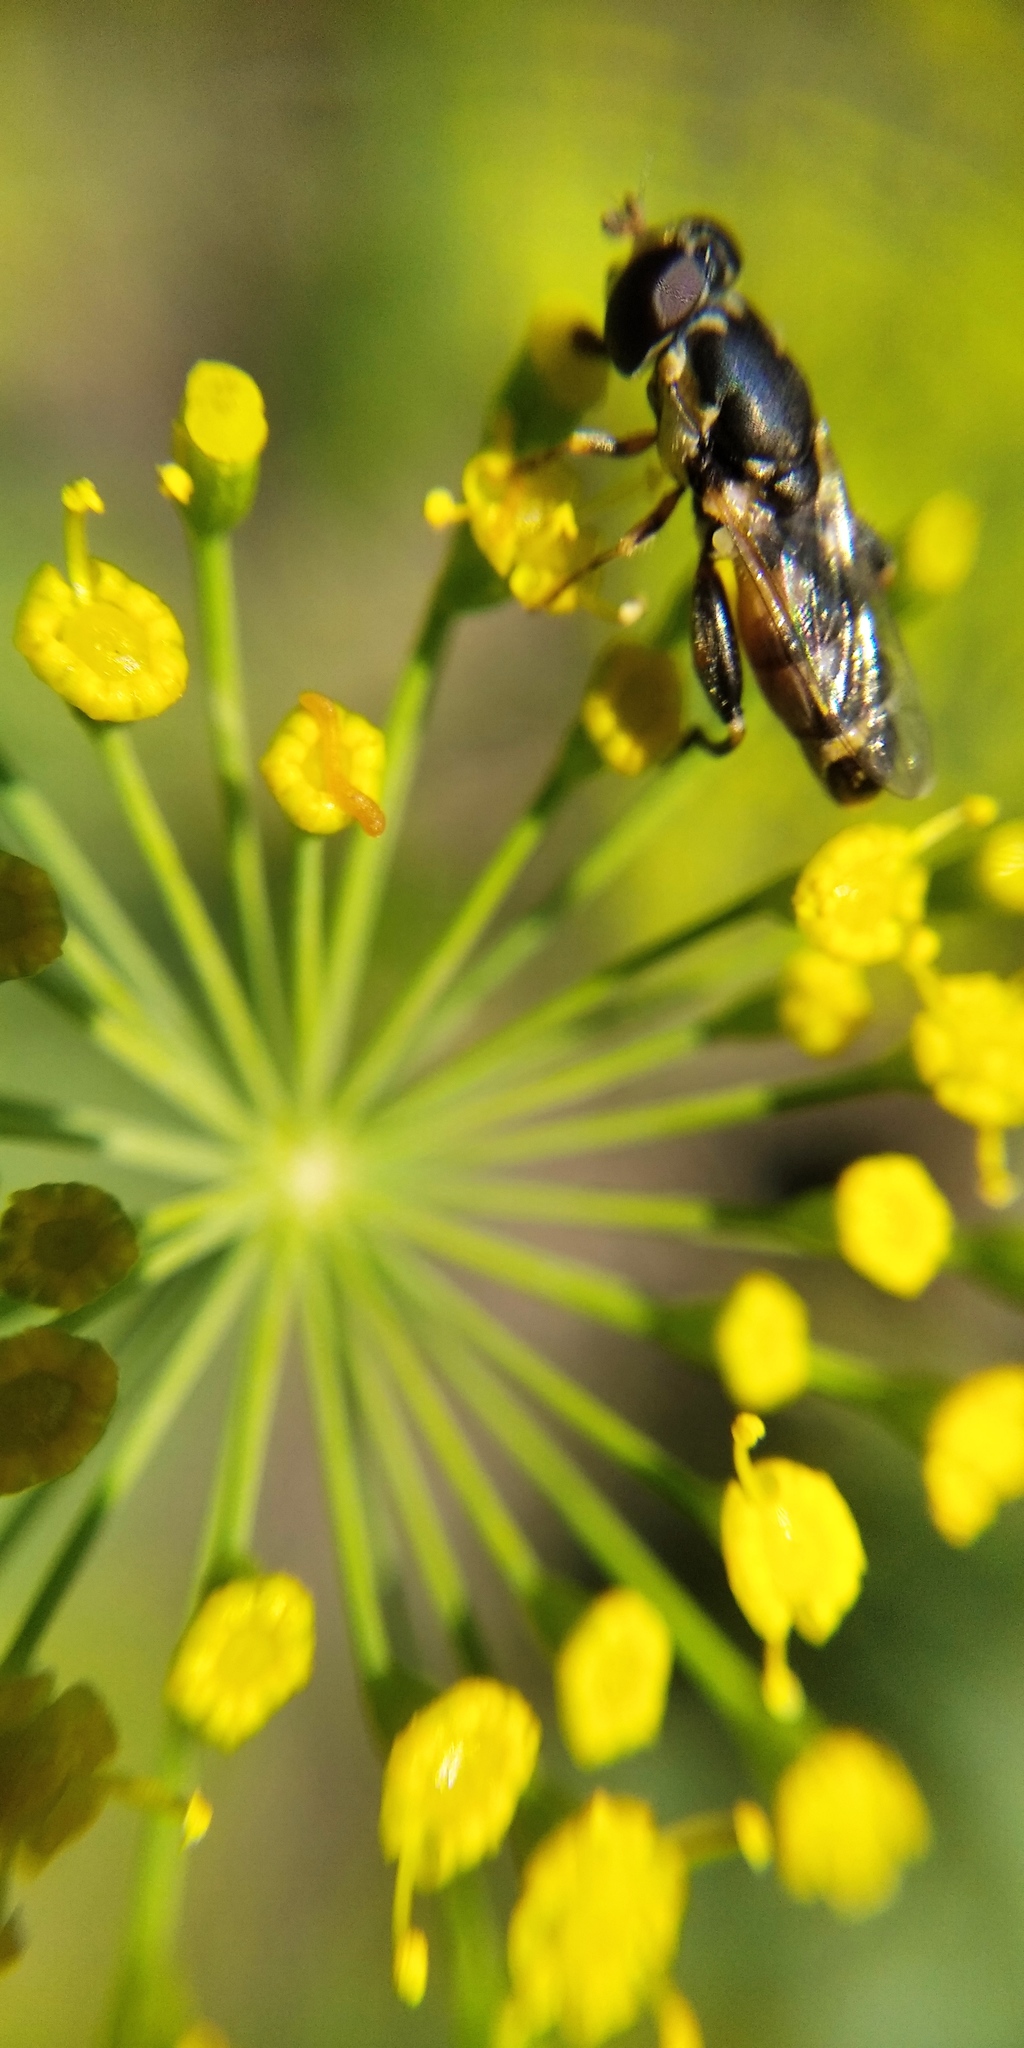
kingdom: Animalia
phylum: Arthropoda
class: Insecta
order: Diptera
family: Syrphidae
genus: Syritta
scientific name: Syritta pipiens
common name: Hover fly
